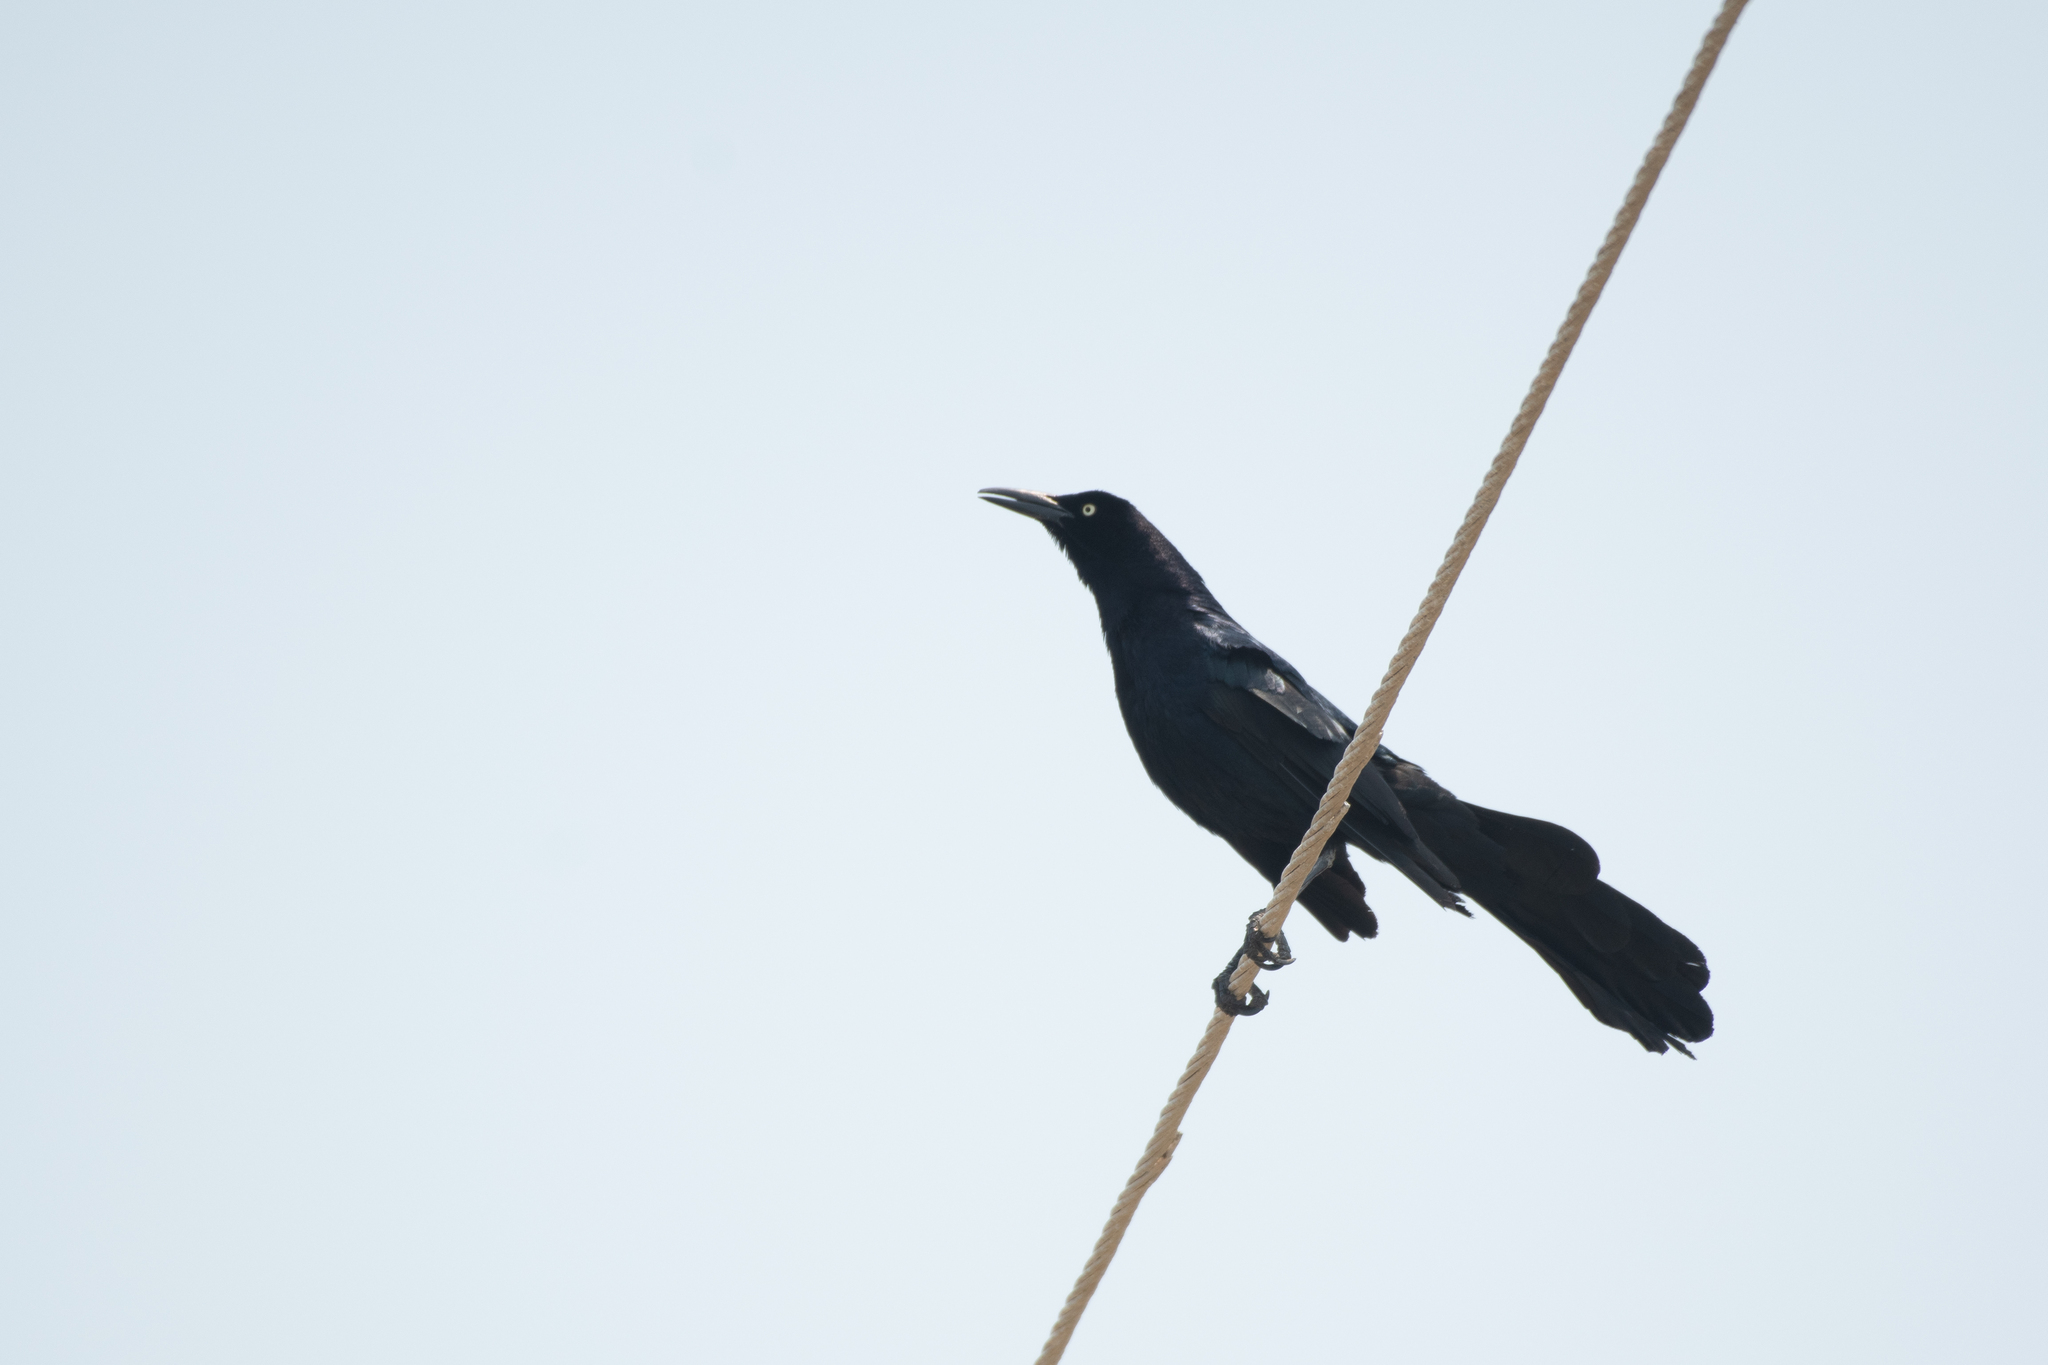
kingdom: Animalia
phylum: Chordata
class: Aves
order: Passeriformes
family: Icteridae
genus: Quiscalus
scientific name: Quiscalus mexicanus
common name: Great-tailed grackle
